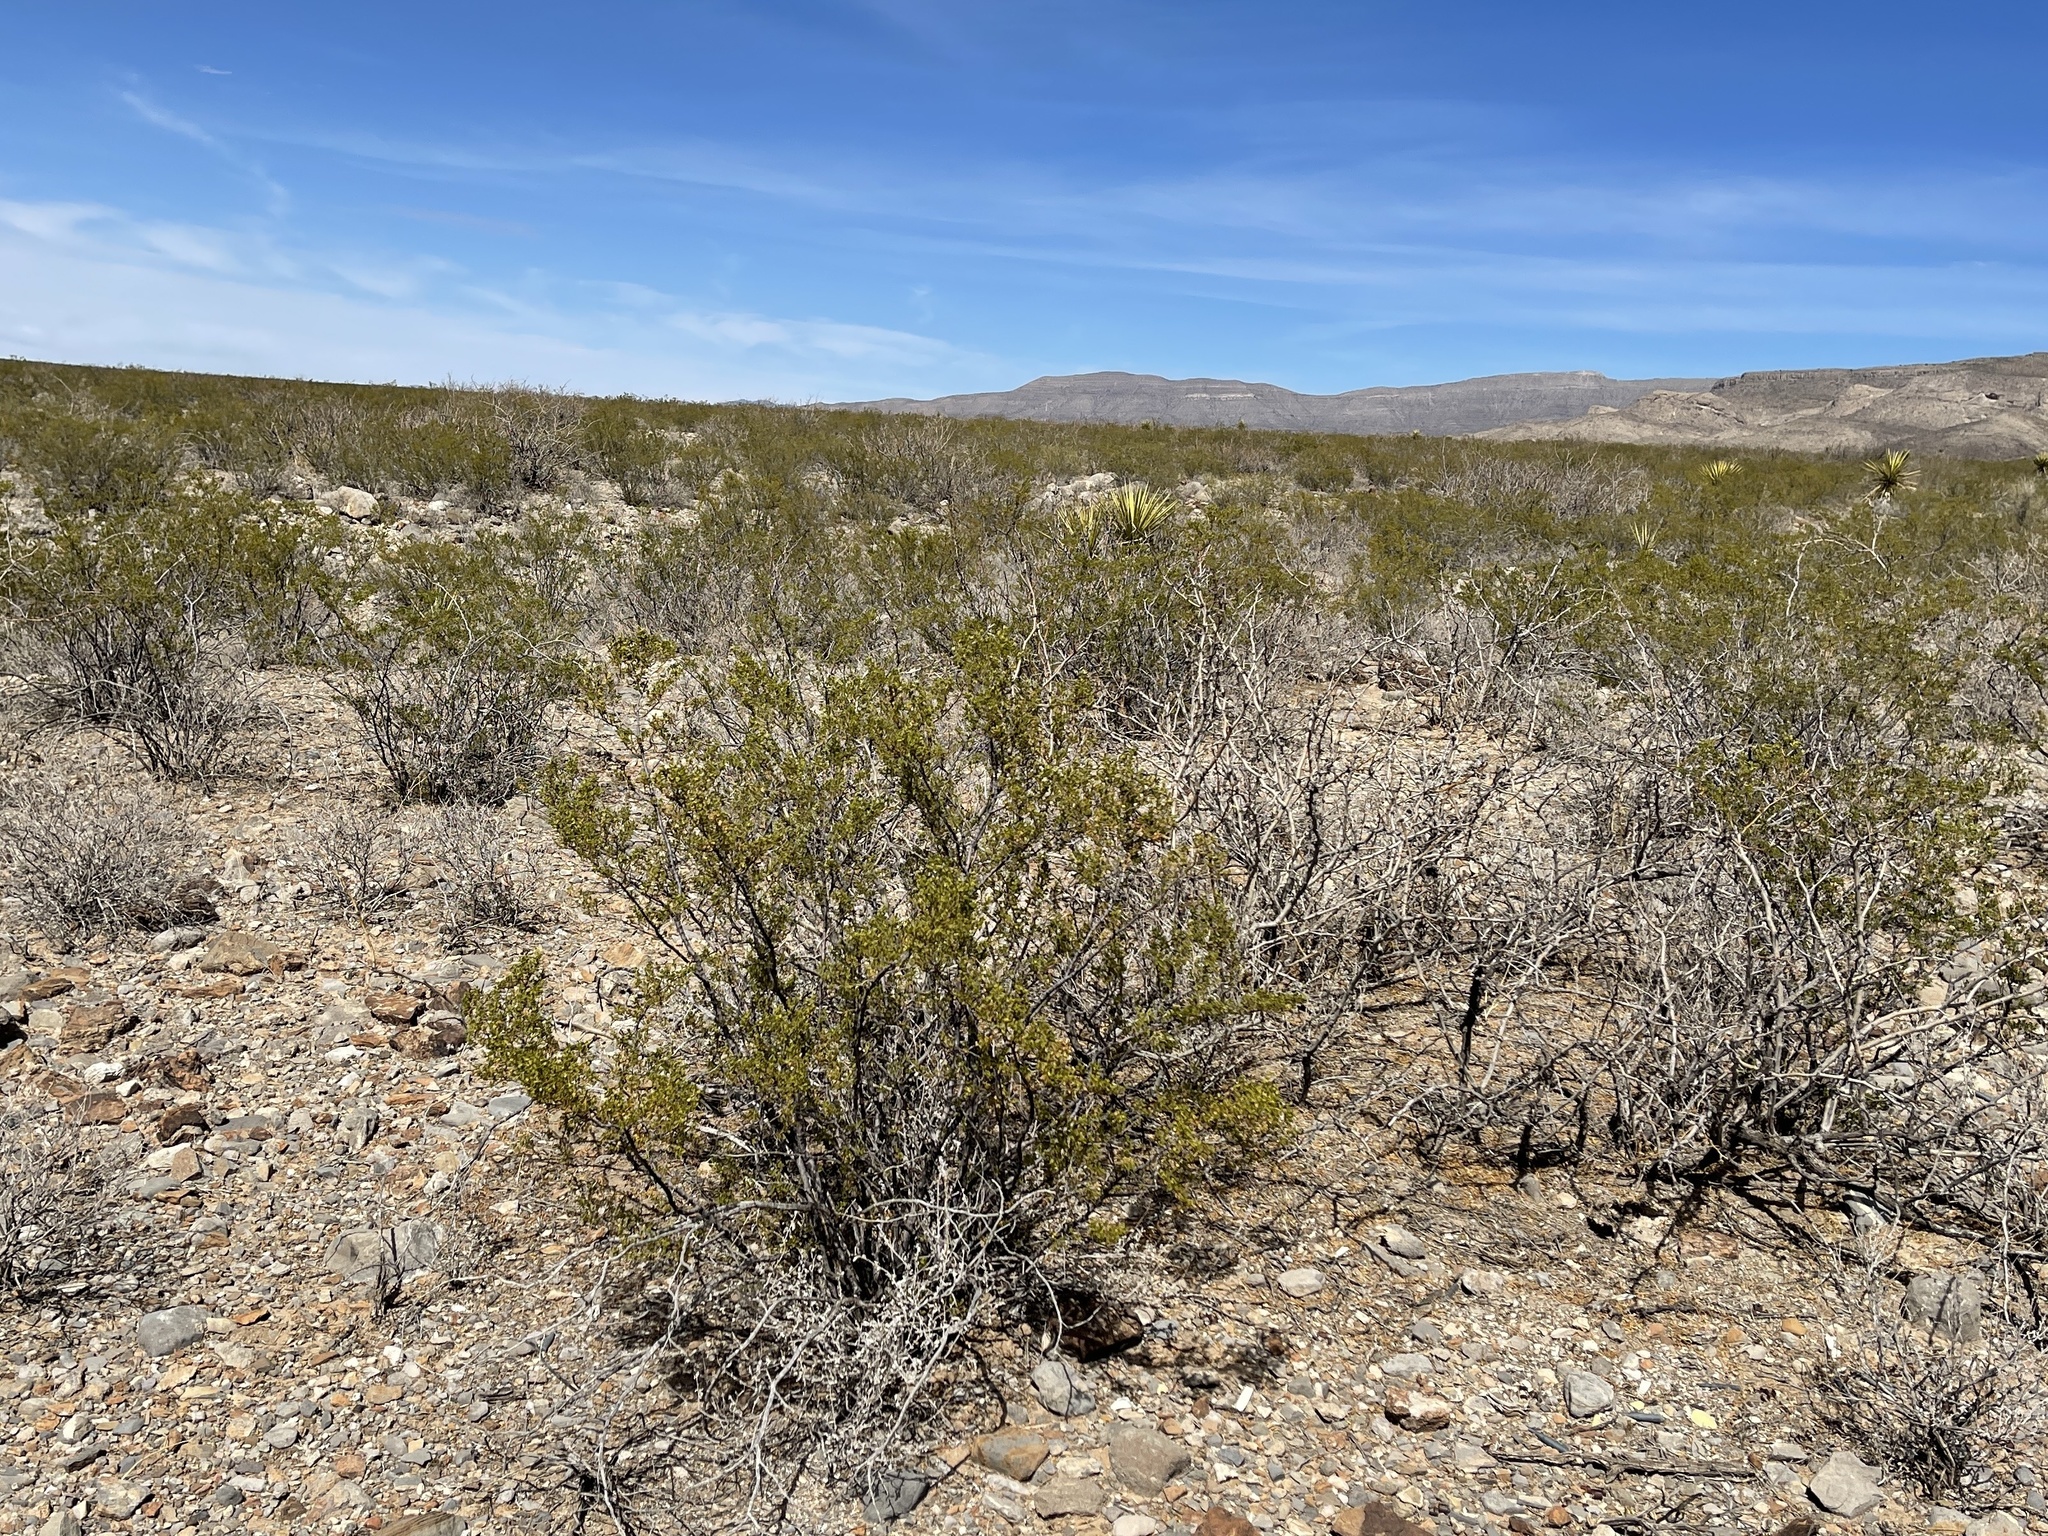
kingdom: Plantae
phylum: Tracheophyta
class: Magnoliopsida
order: Zygophyllales
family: Zygophyllaceae
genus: Larrea
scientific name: Larrea tridentata
